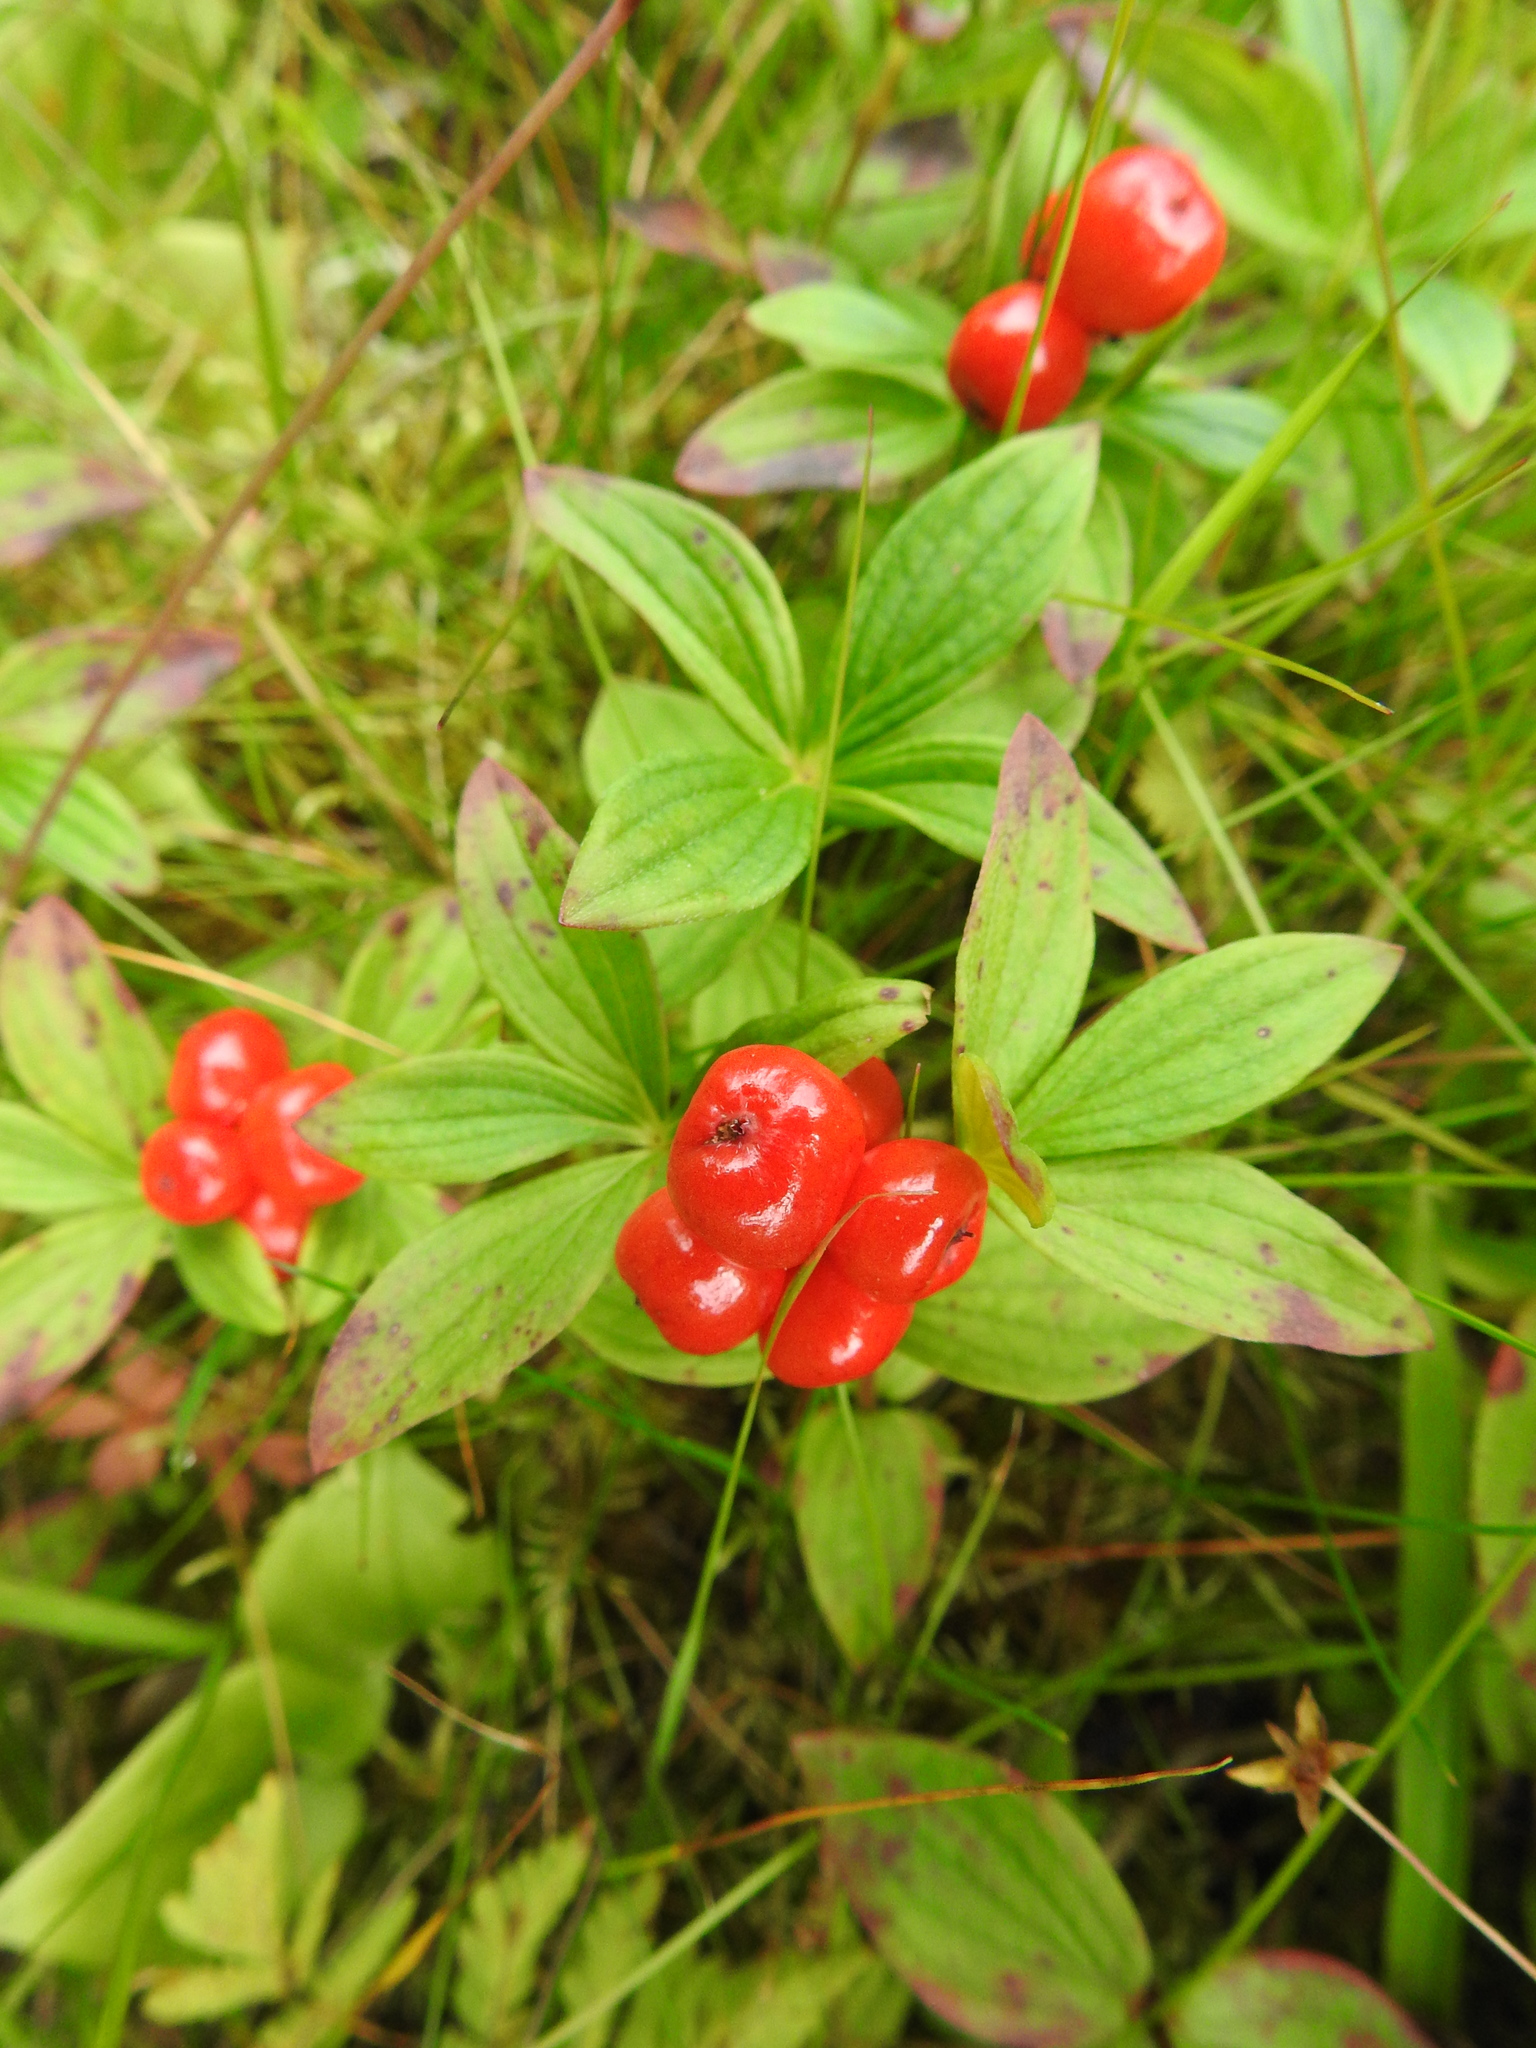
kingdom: Plantae
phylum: Tracheophyta
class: Magnoliopsida
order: Cornales
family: Cornaceae
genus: Cornus
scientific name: Cornus suecica
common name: Dwarf cornel
